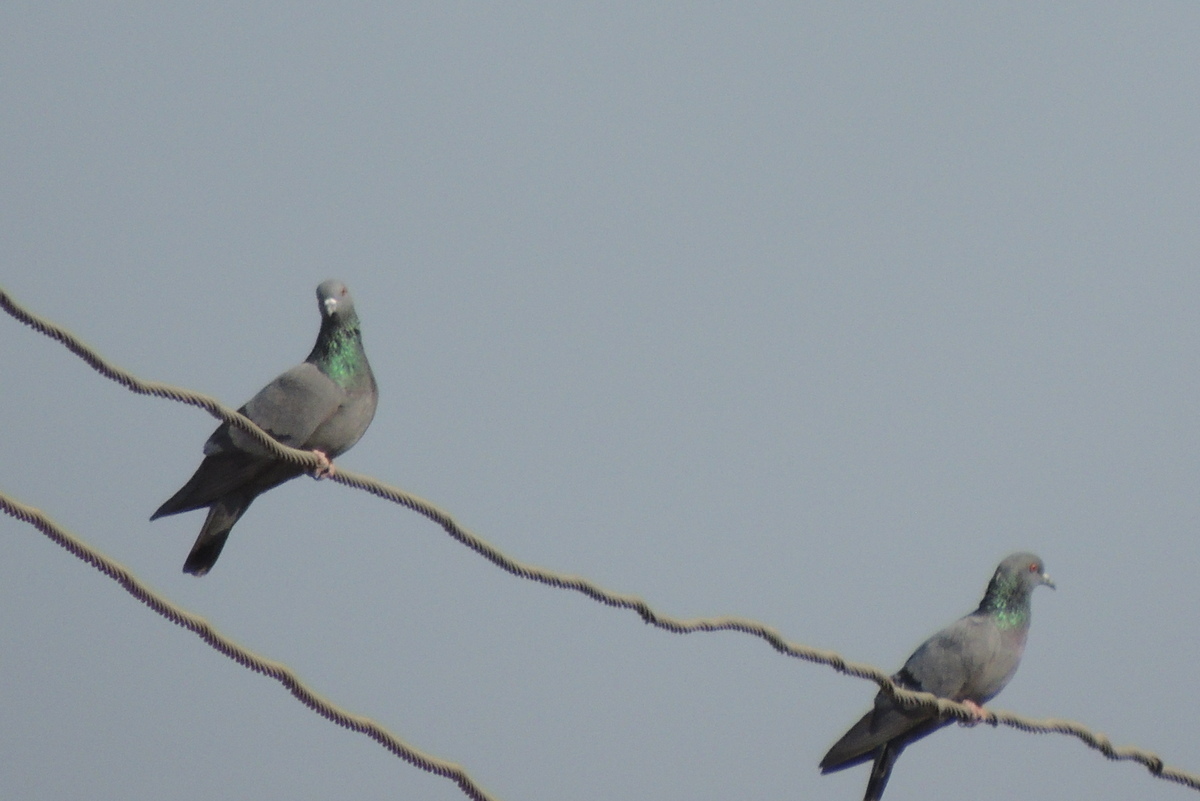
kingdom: Animalia
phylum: Chordata
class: Aves
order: Columbiformes
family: Columbidae
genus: Columba
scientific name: Columba livia
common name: Rock pigeon
